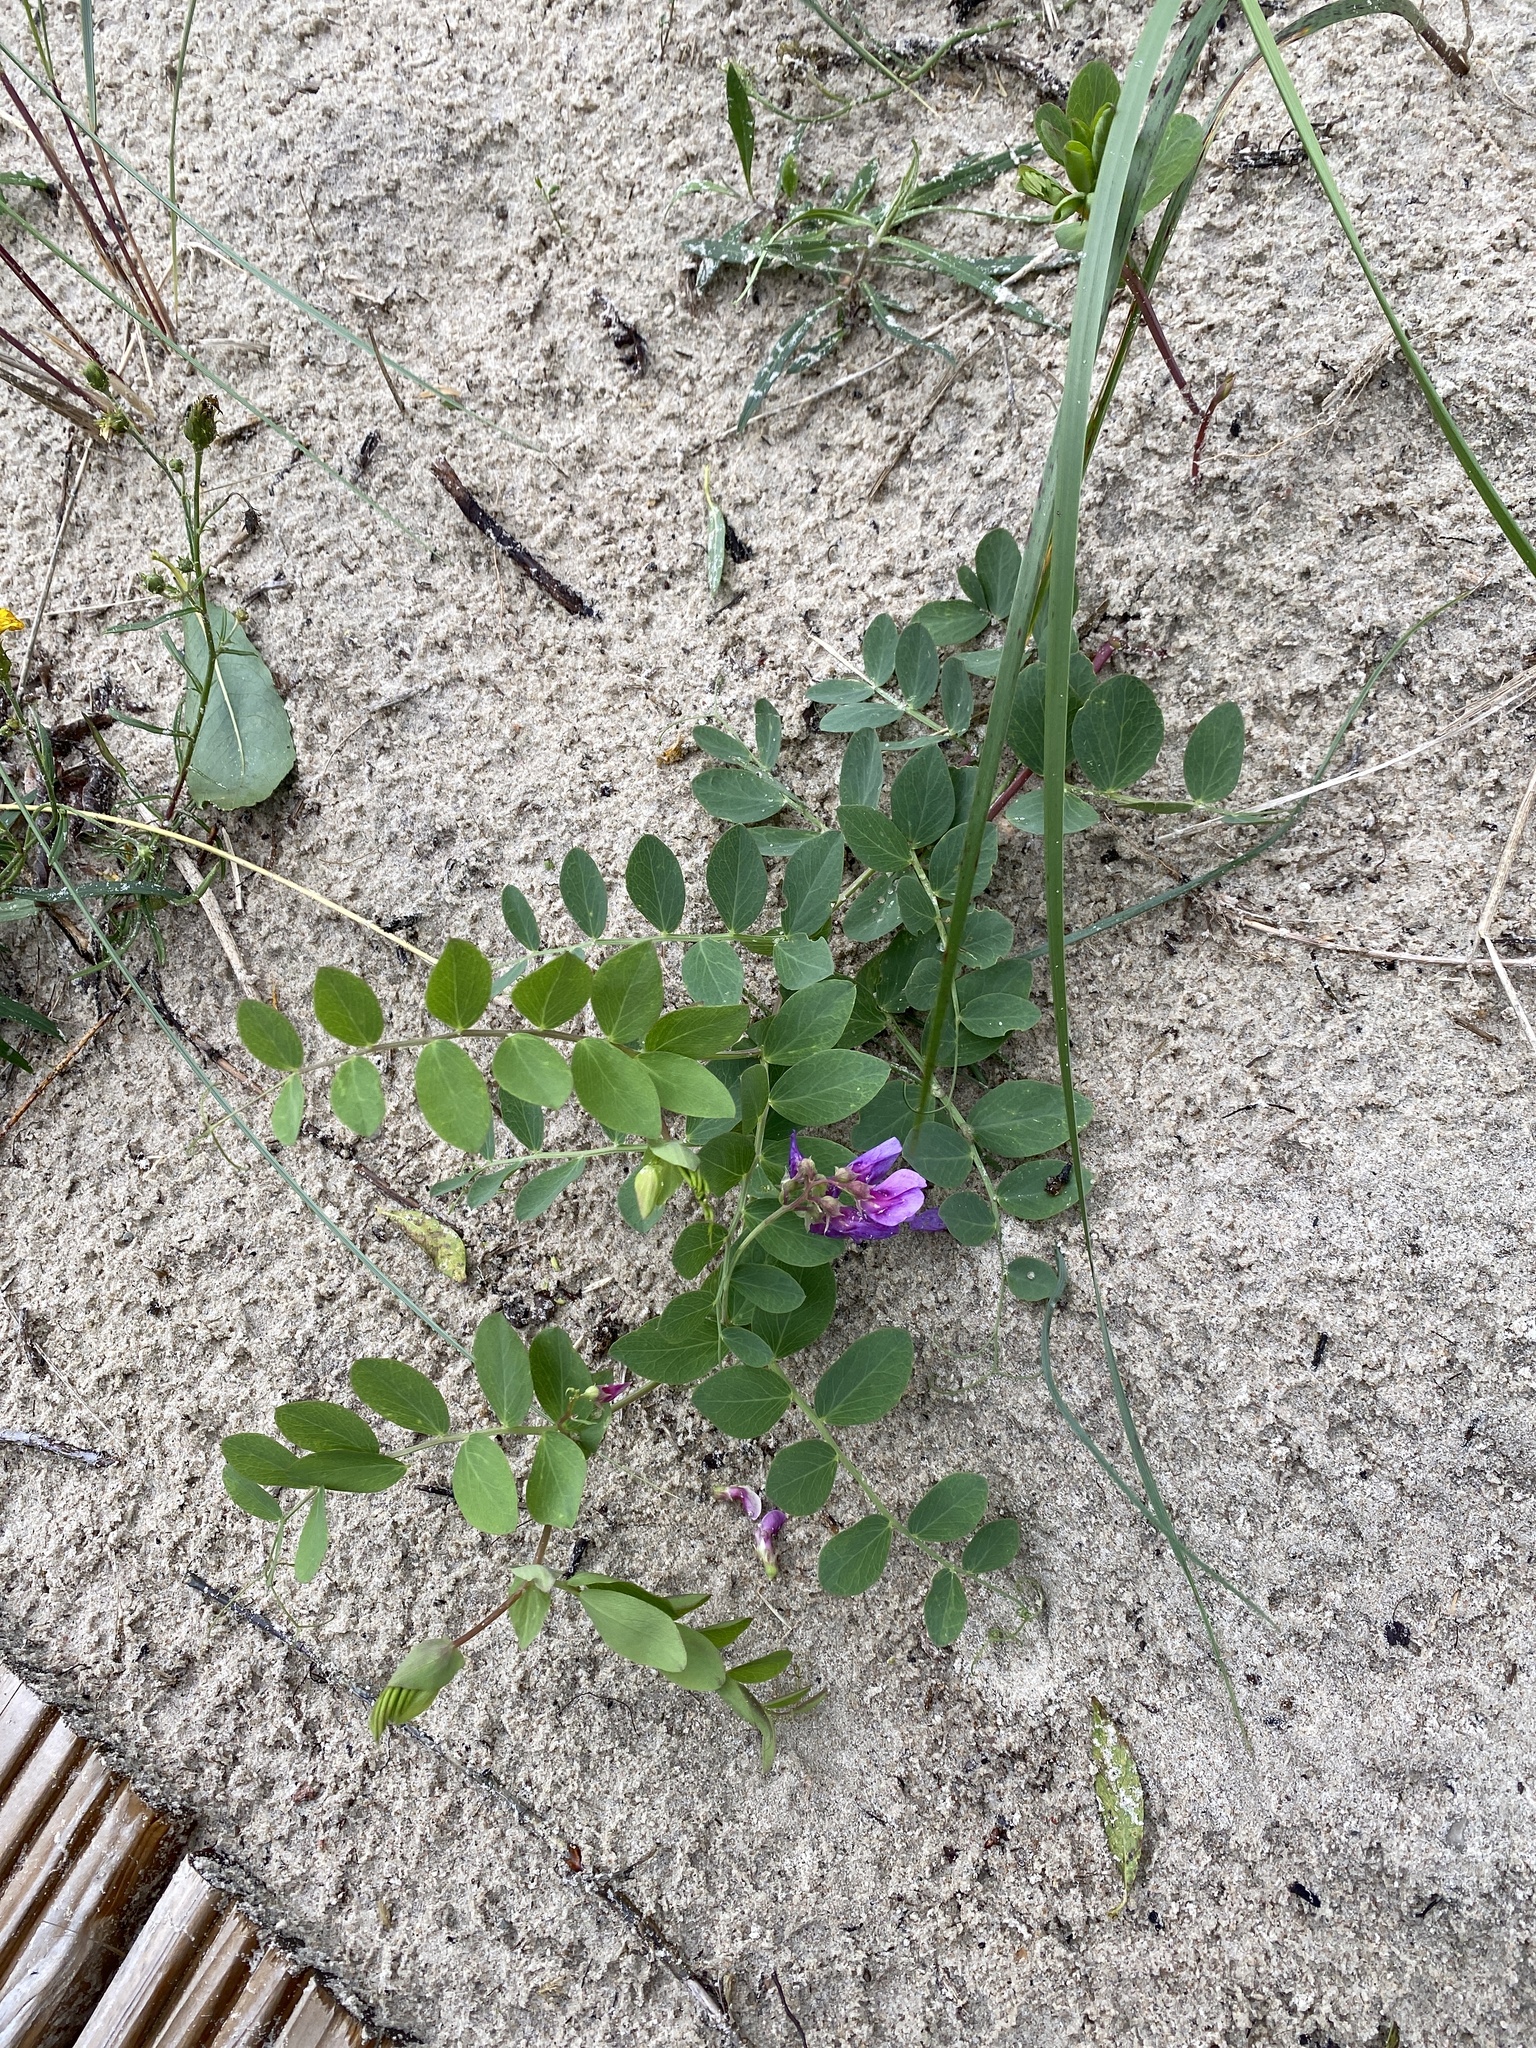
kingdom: Plantae
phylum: Tracheophyta
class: Magnoliopsida
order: Fabales
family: Fabaceae
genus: Lathyrus
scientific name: Lathyrus japonicus
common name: Sea pea
